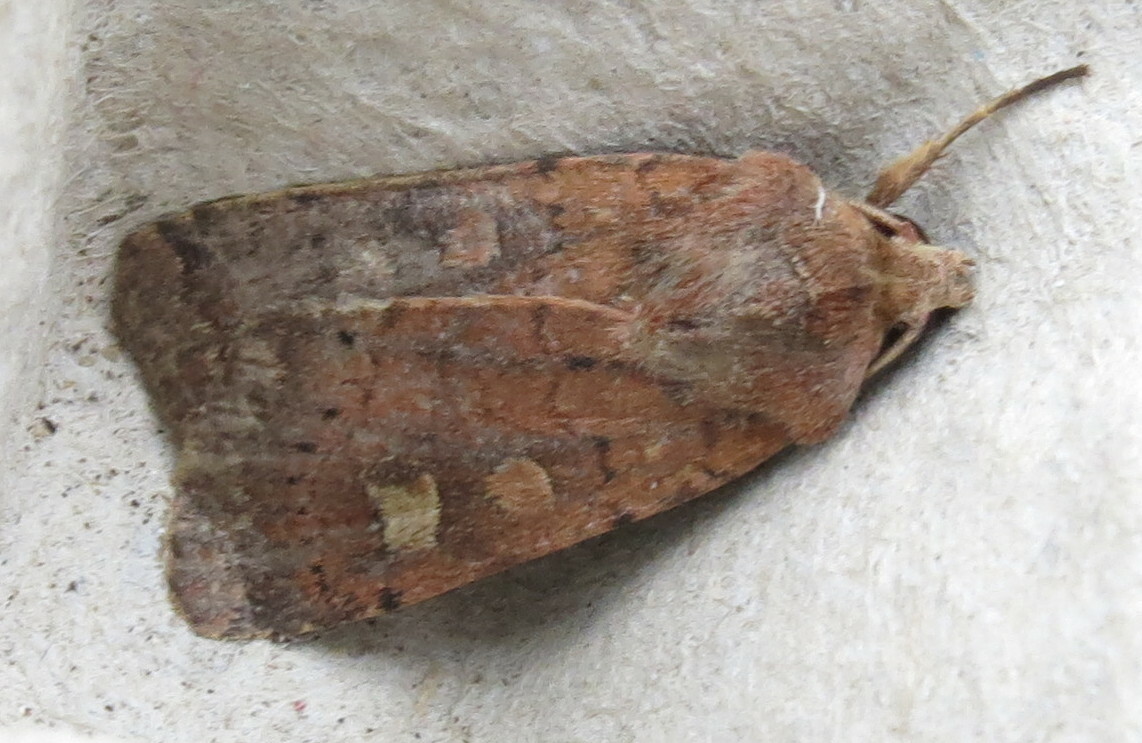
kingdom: Animalia
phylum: Arthropoda
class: Insecta
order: Lepidoptera
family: Noctuidae
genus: Xestia
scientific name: Xestia xanthographa
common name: Square-spot rustic
